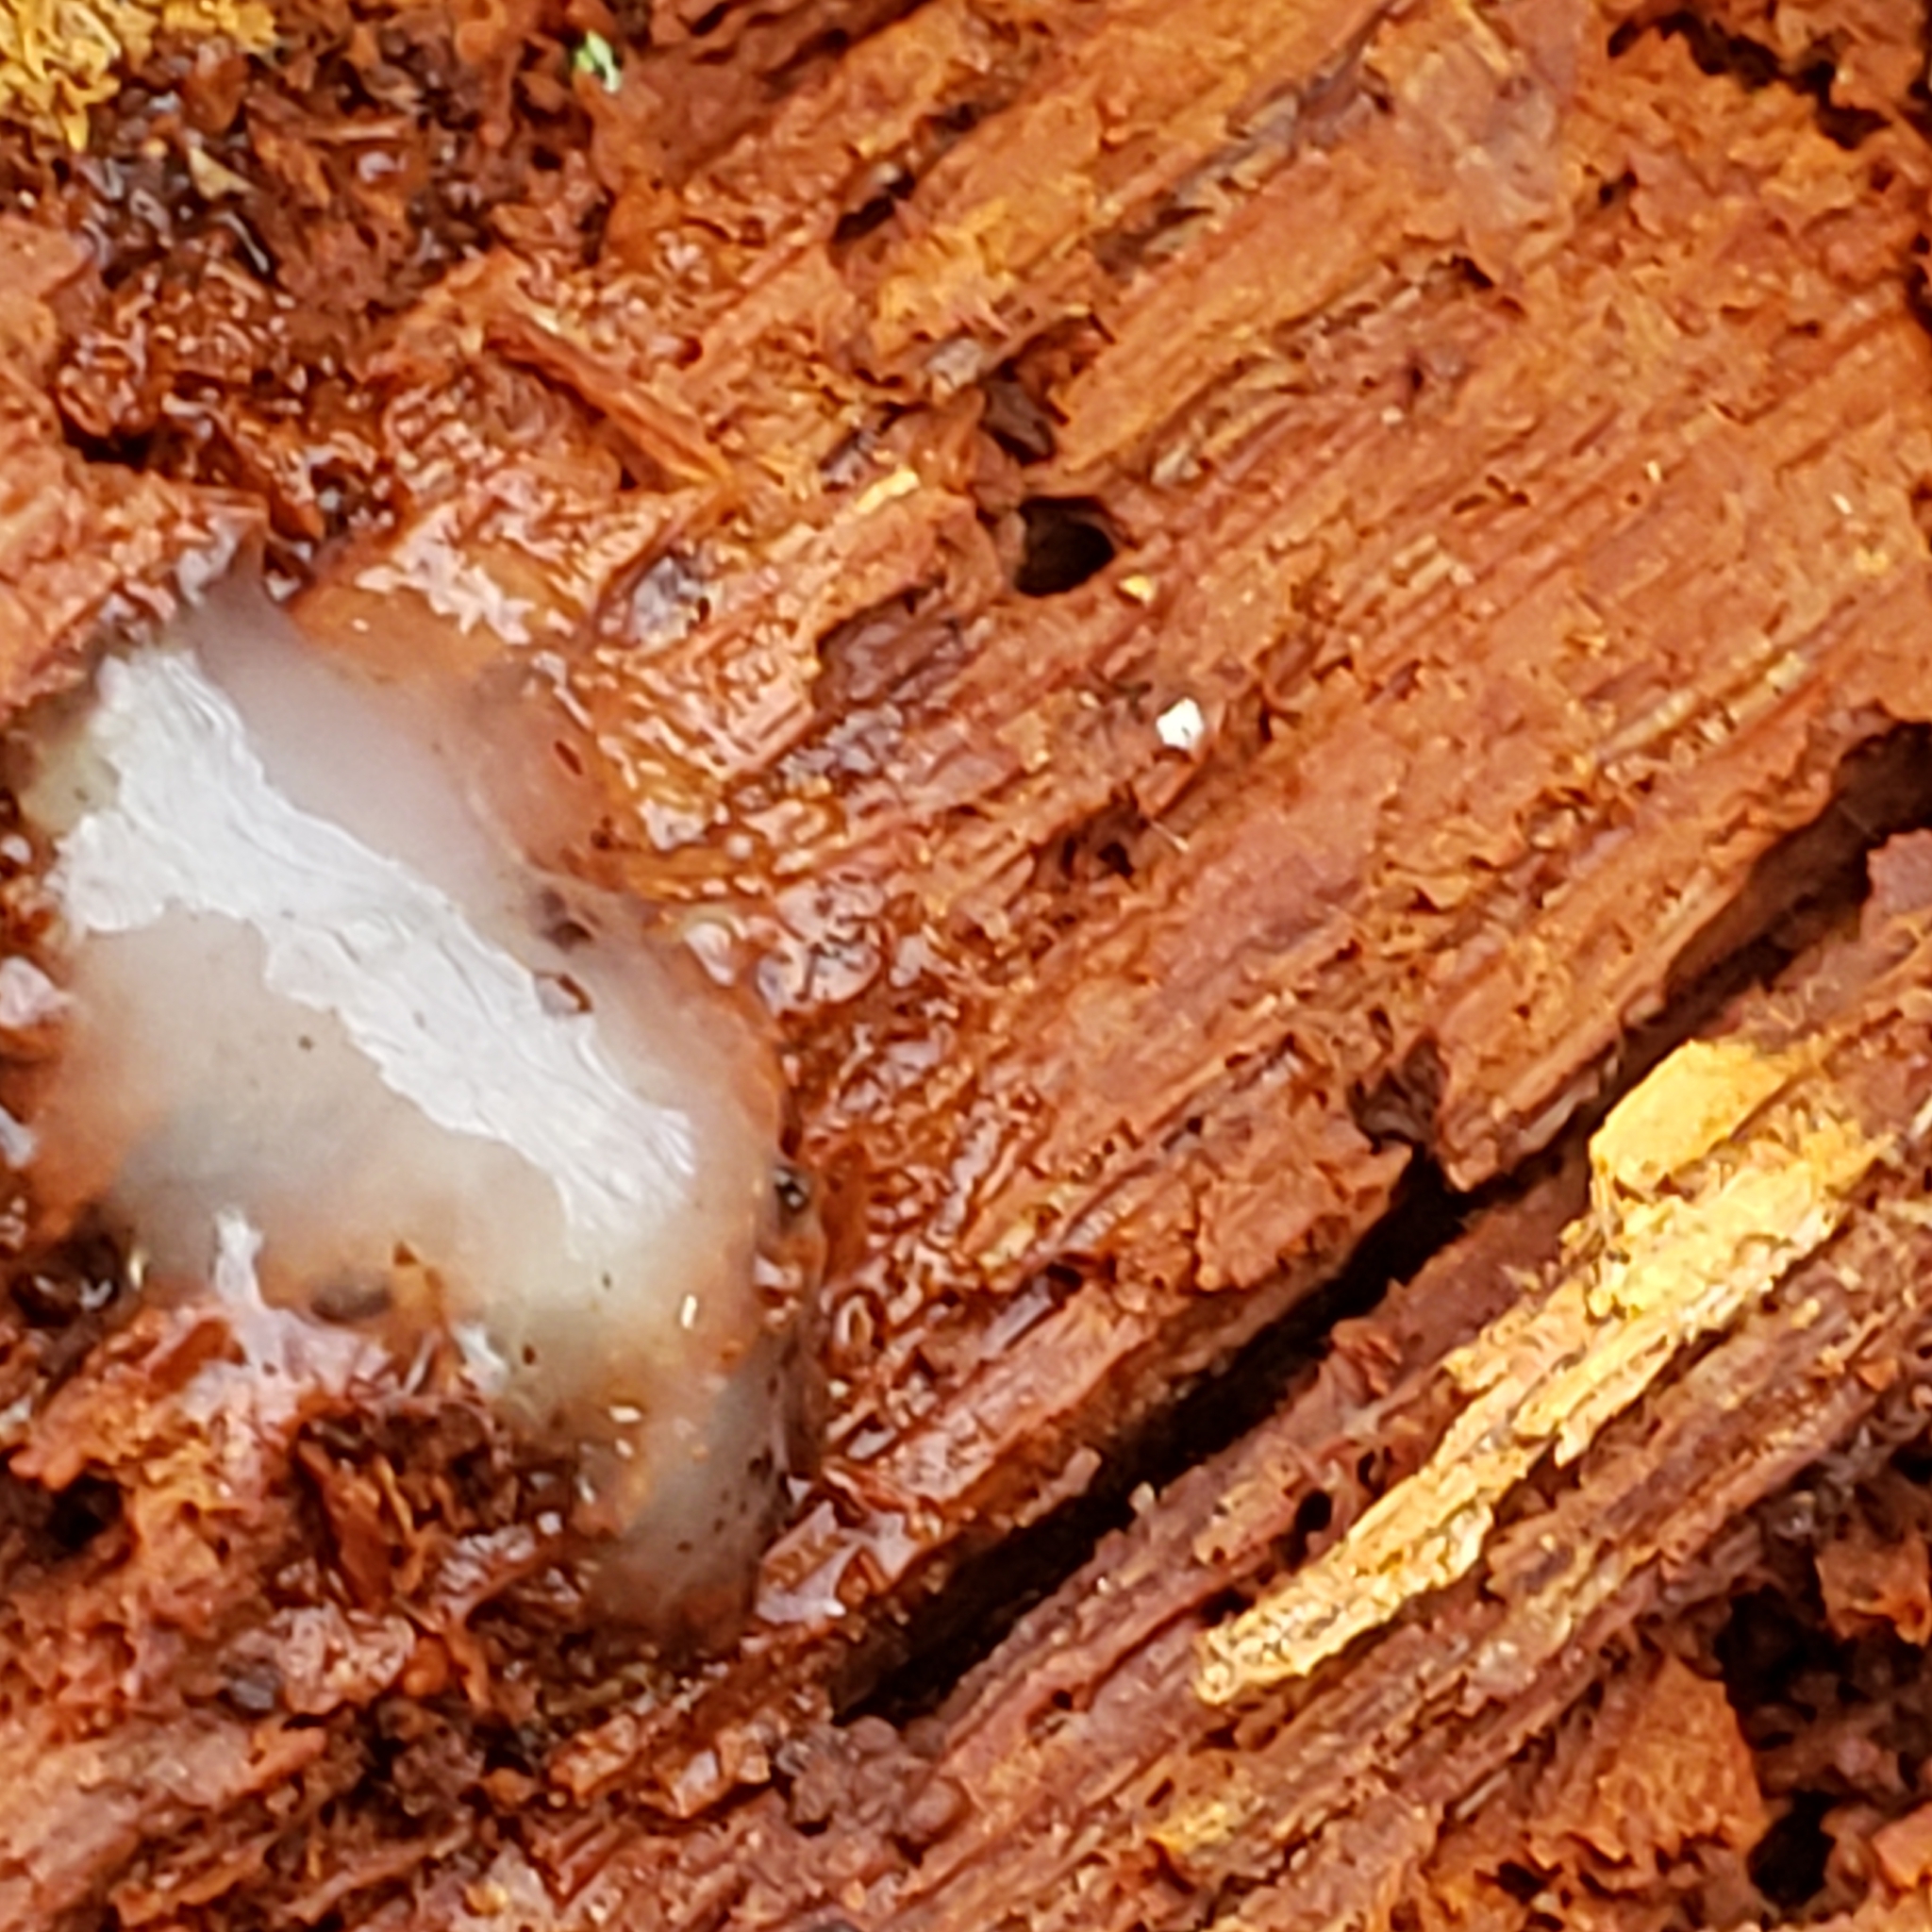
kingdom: Fungi
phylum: Basidiomycota
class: Agaricomycetes
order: Auriculariales
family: Hyaloriaceae
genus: Myxarium
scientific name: Myxarium nucleatum
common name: Crystal brain fungus
